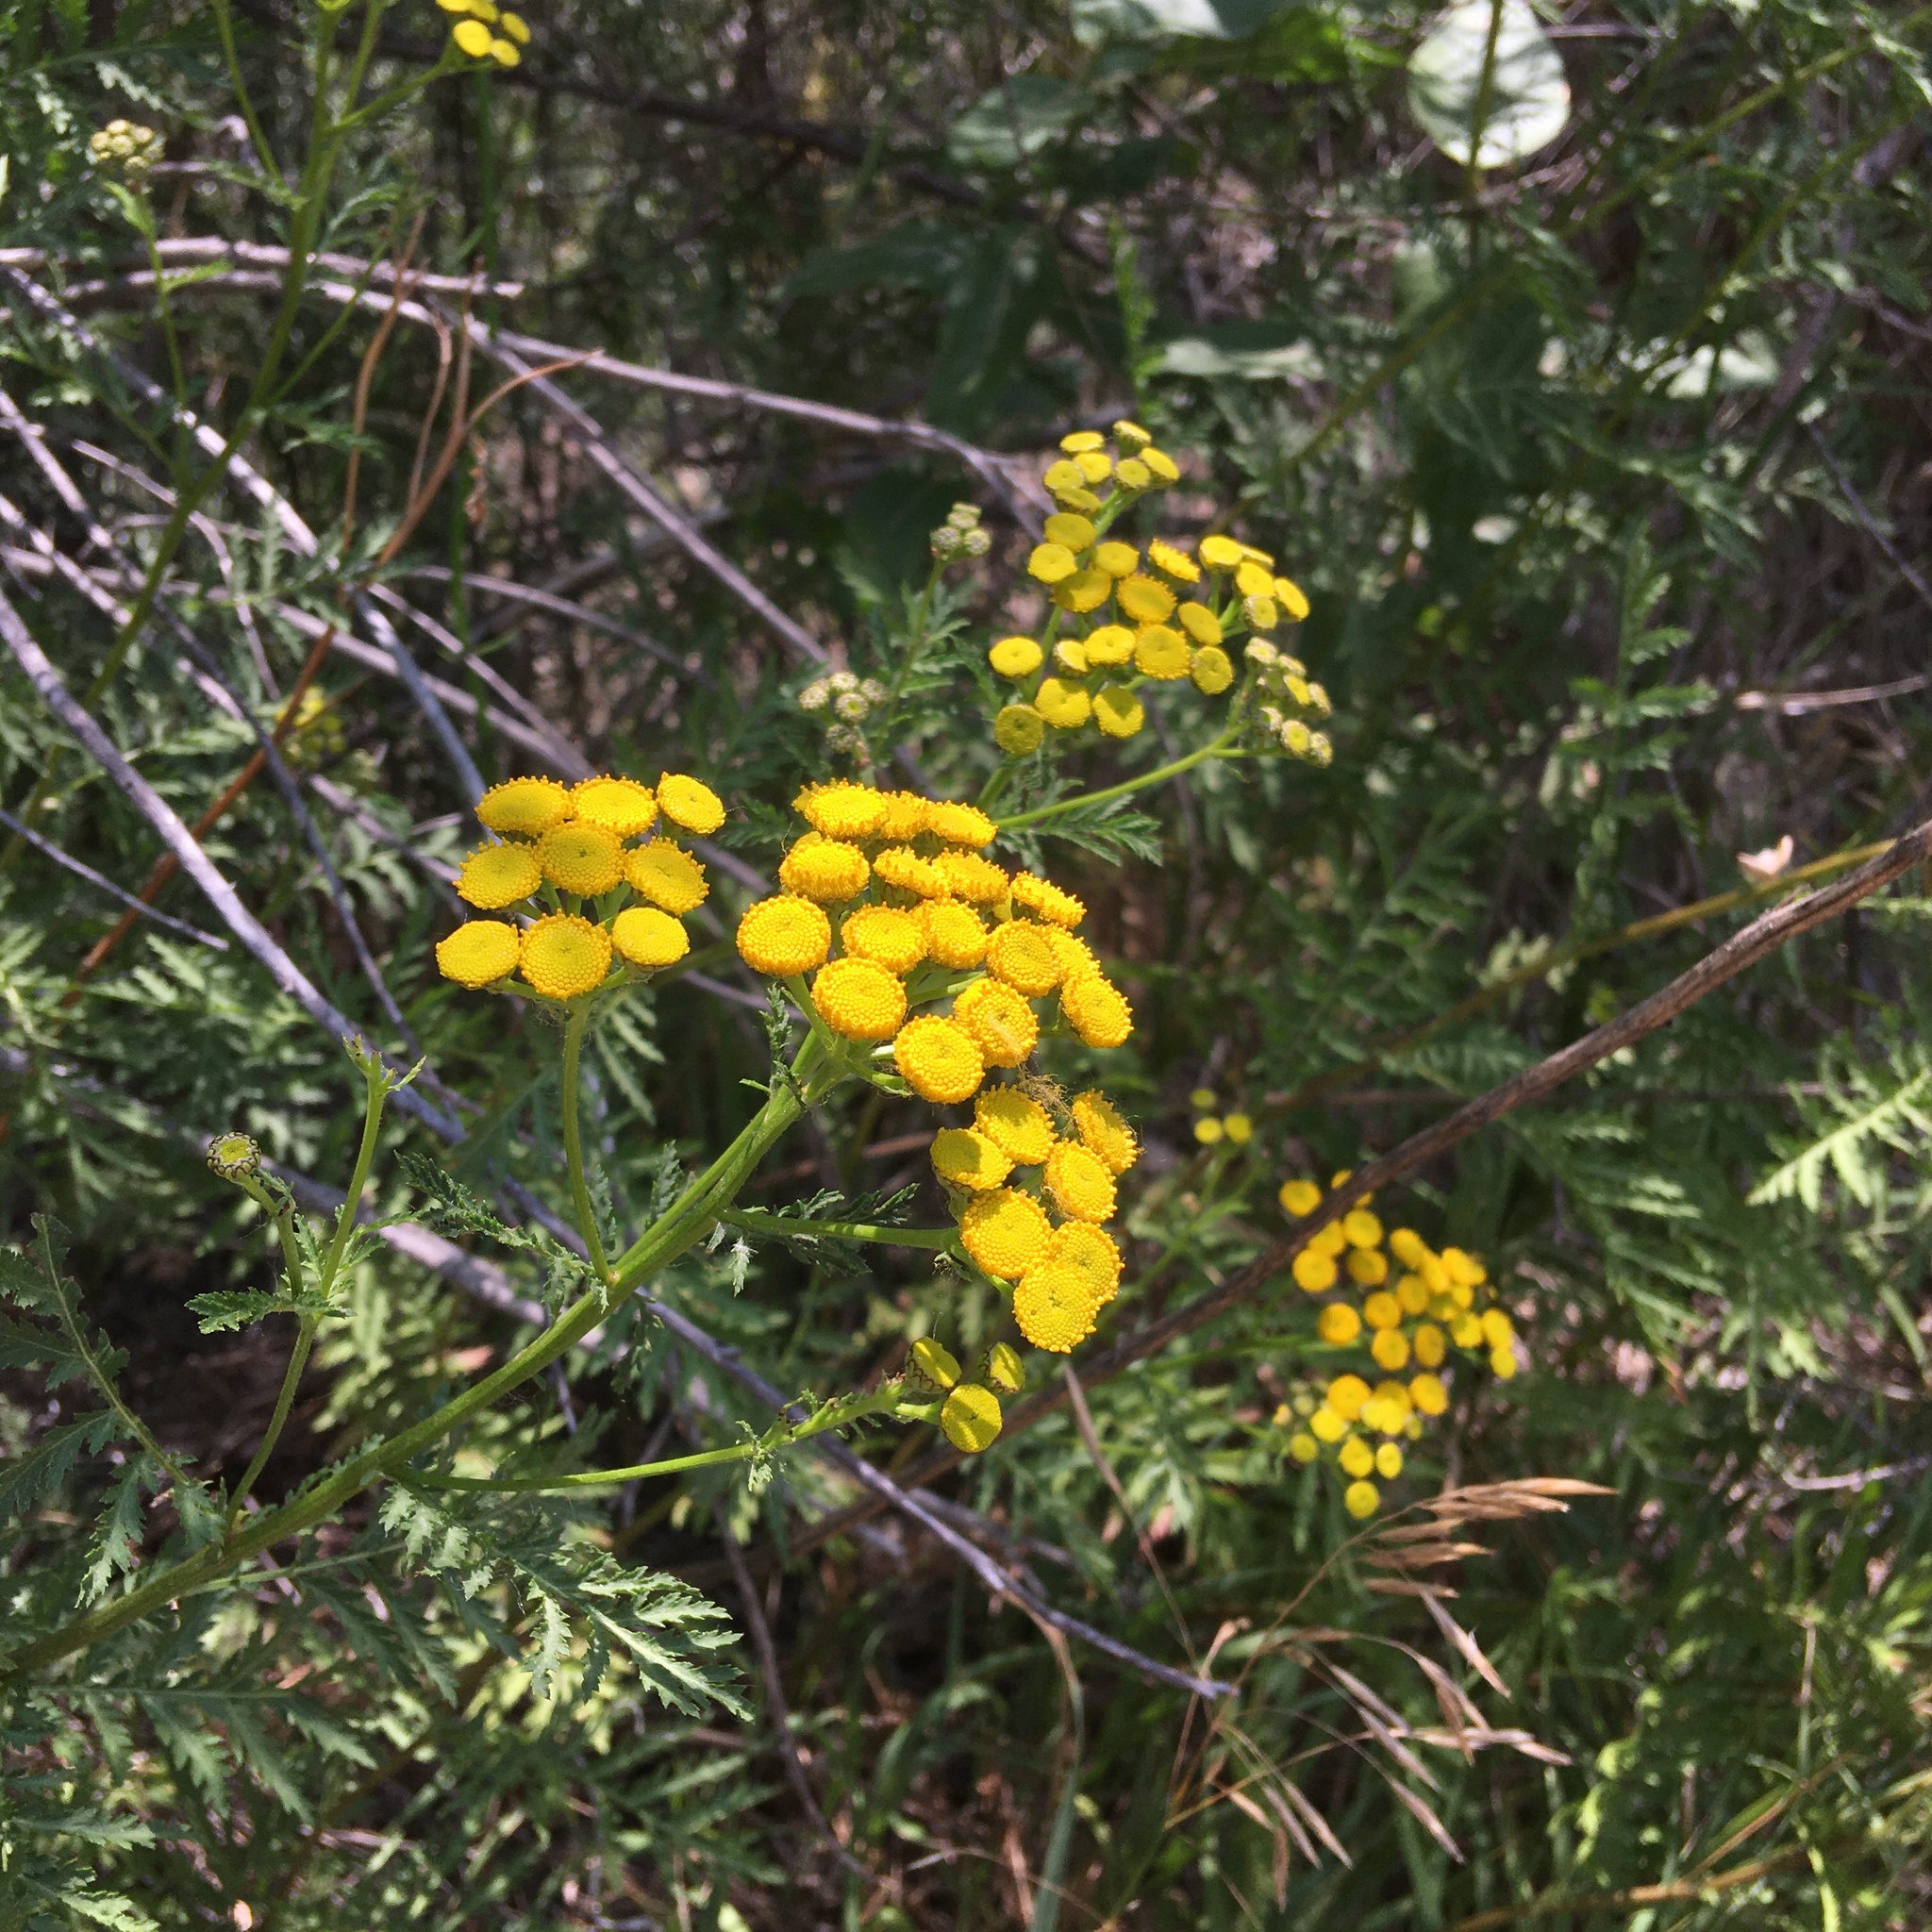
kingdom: Plantae
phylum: Tracheophyta
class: Magnoliopsida
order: Asterales
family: Asteraceae
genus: Tanacetum
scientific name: Tanacetum vulgare
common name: Common tansy
